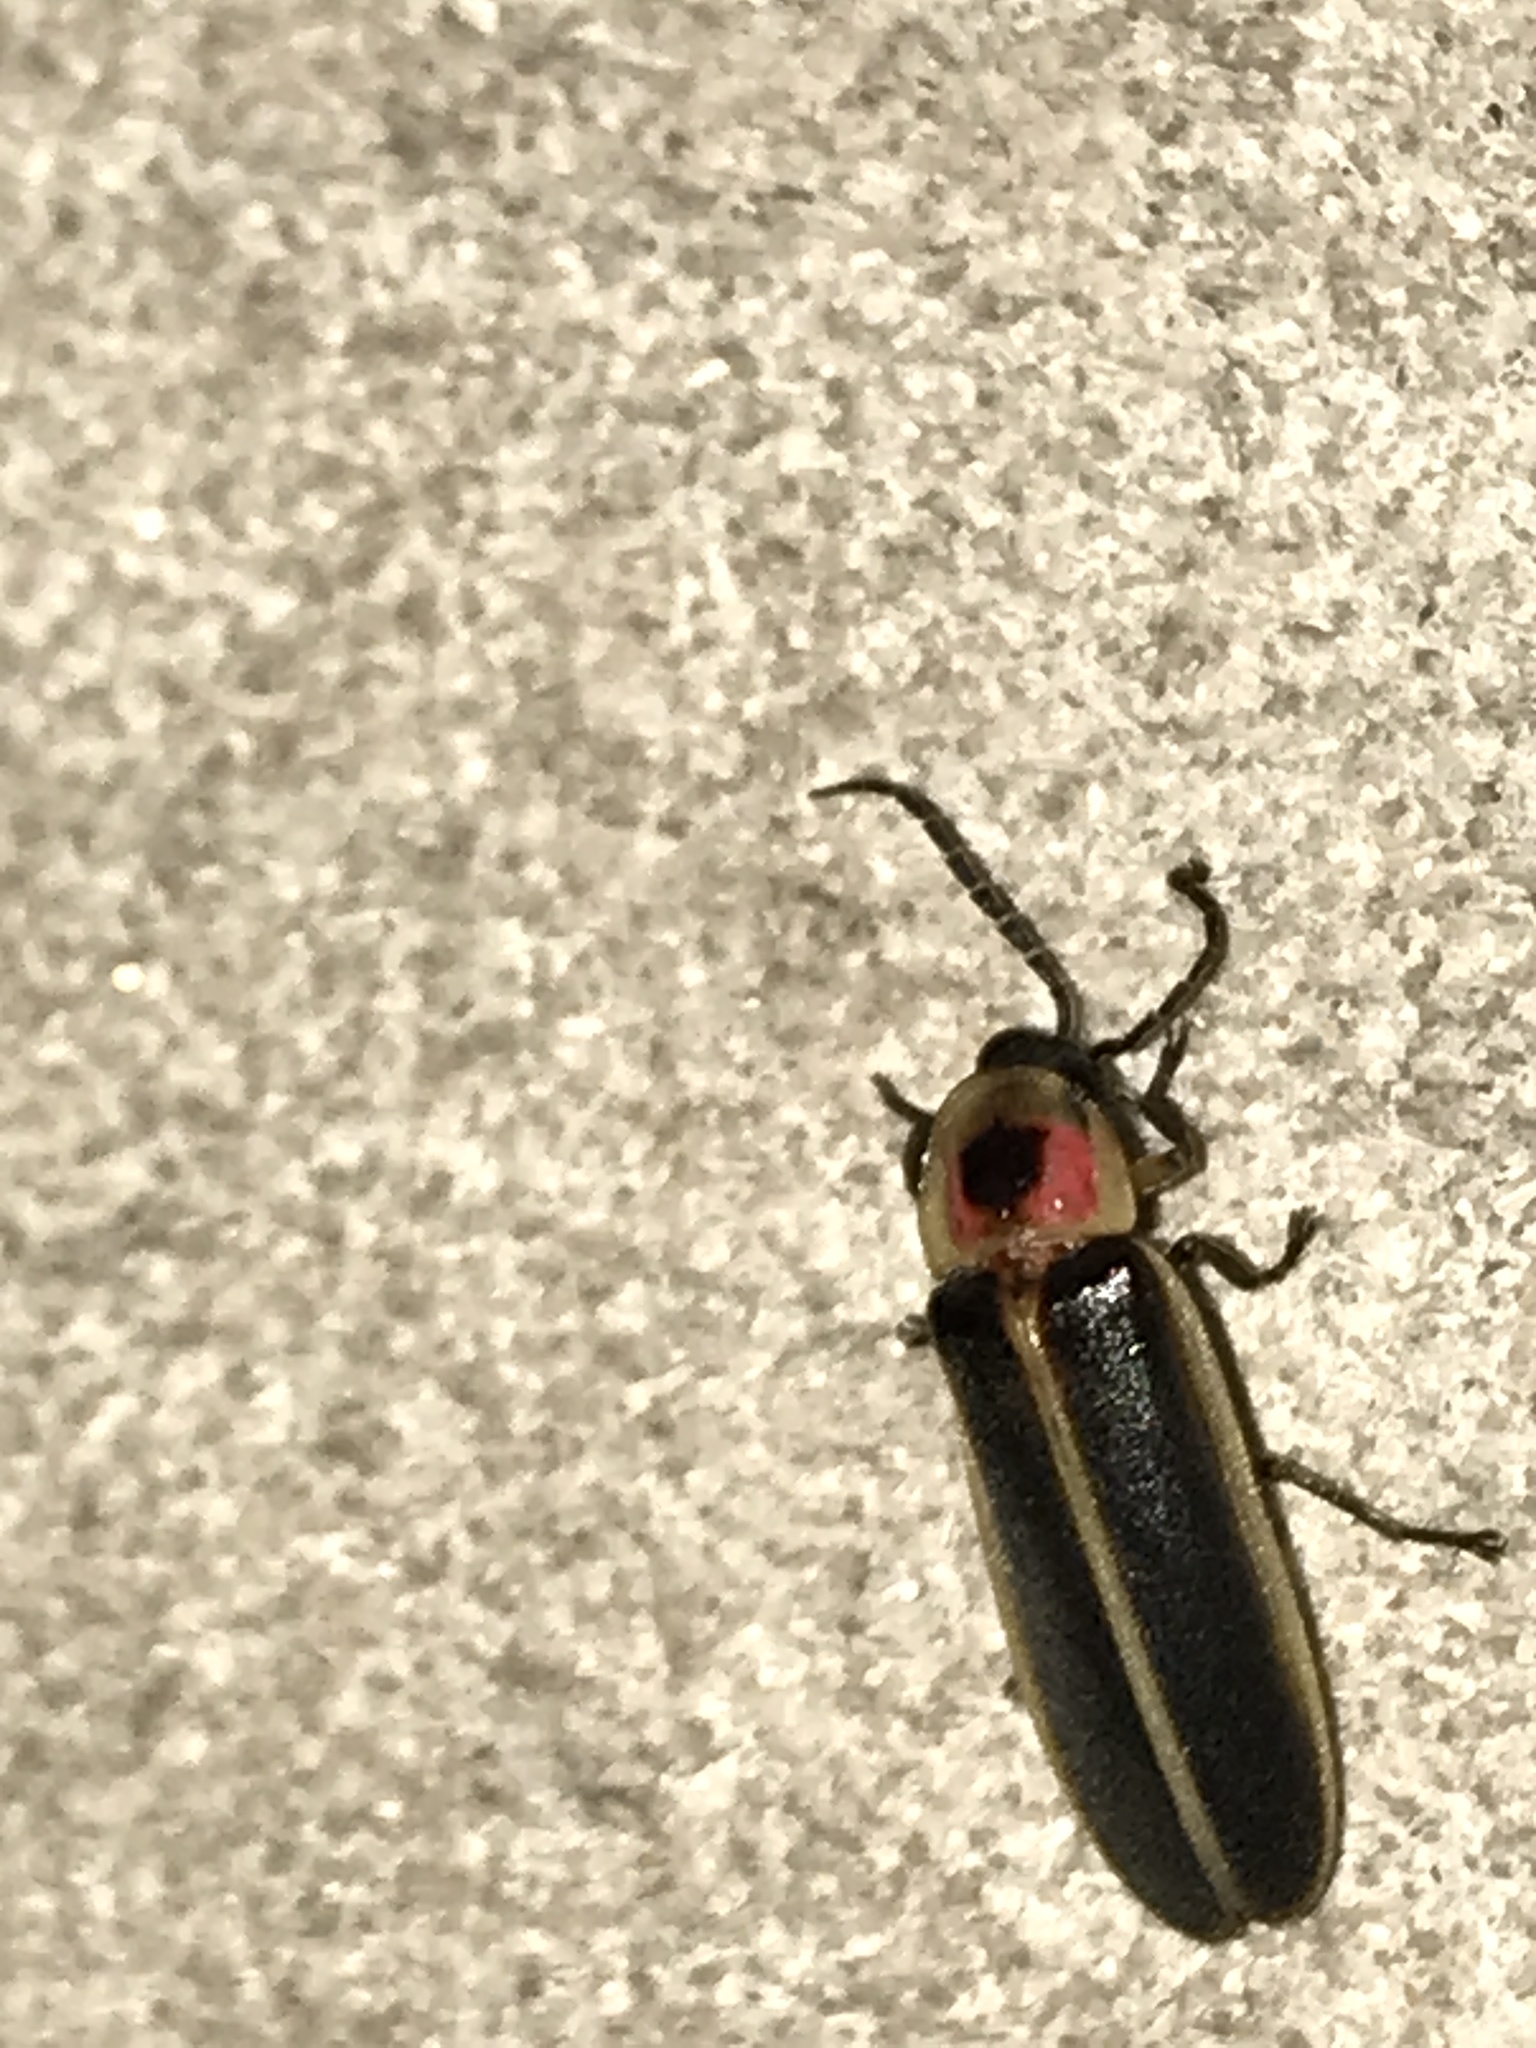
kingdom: Animalia
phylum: Arthropoda
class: Insecta
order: Coleoptera
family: Lampyridae
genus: Photinus
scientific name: Photinus pyralis
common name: Big dipper firefly
